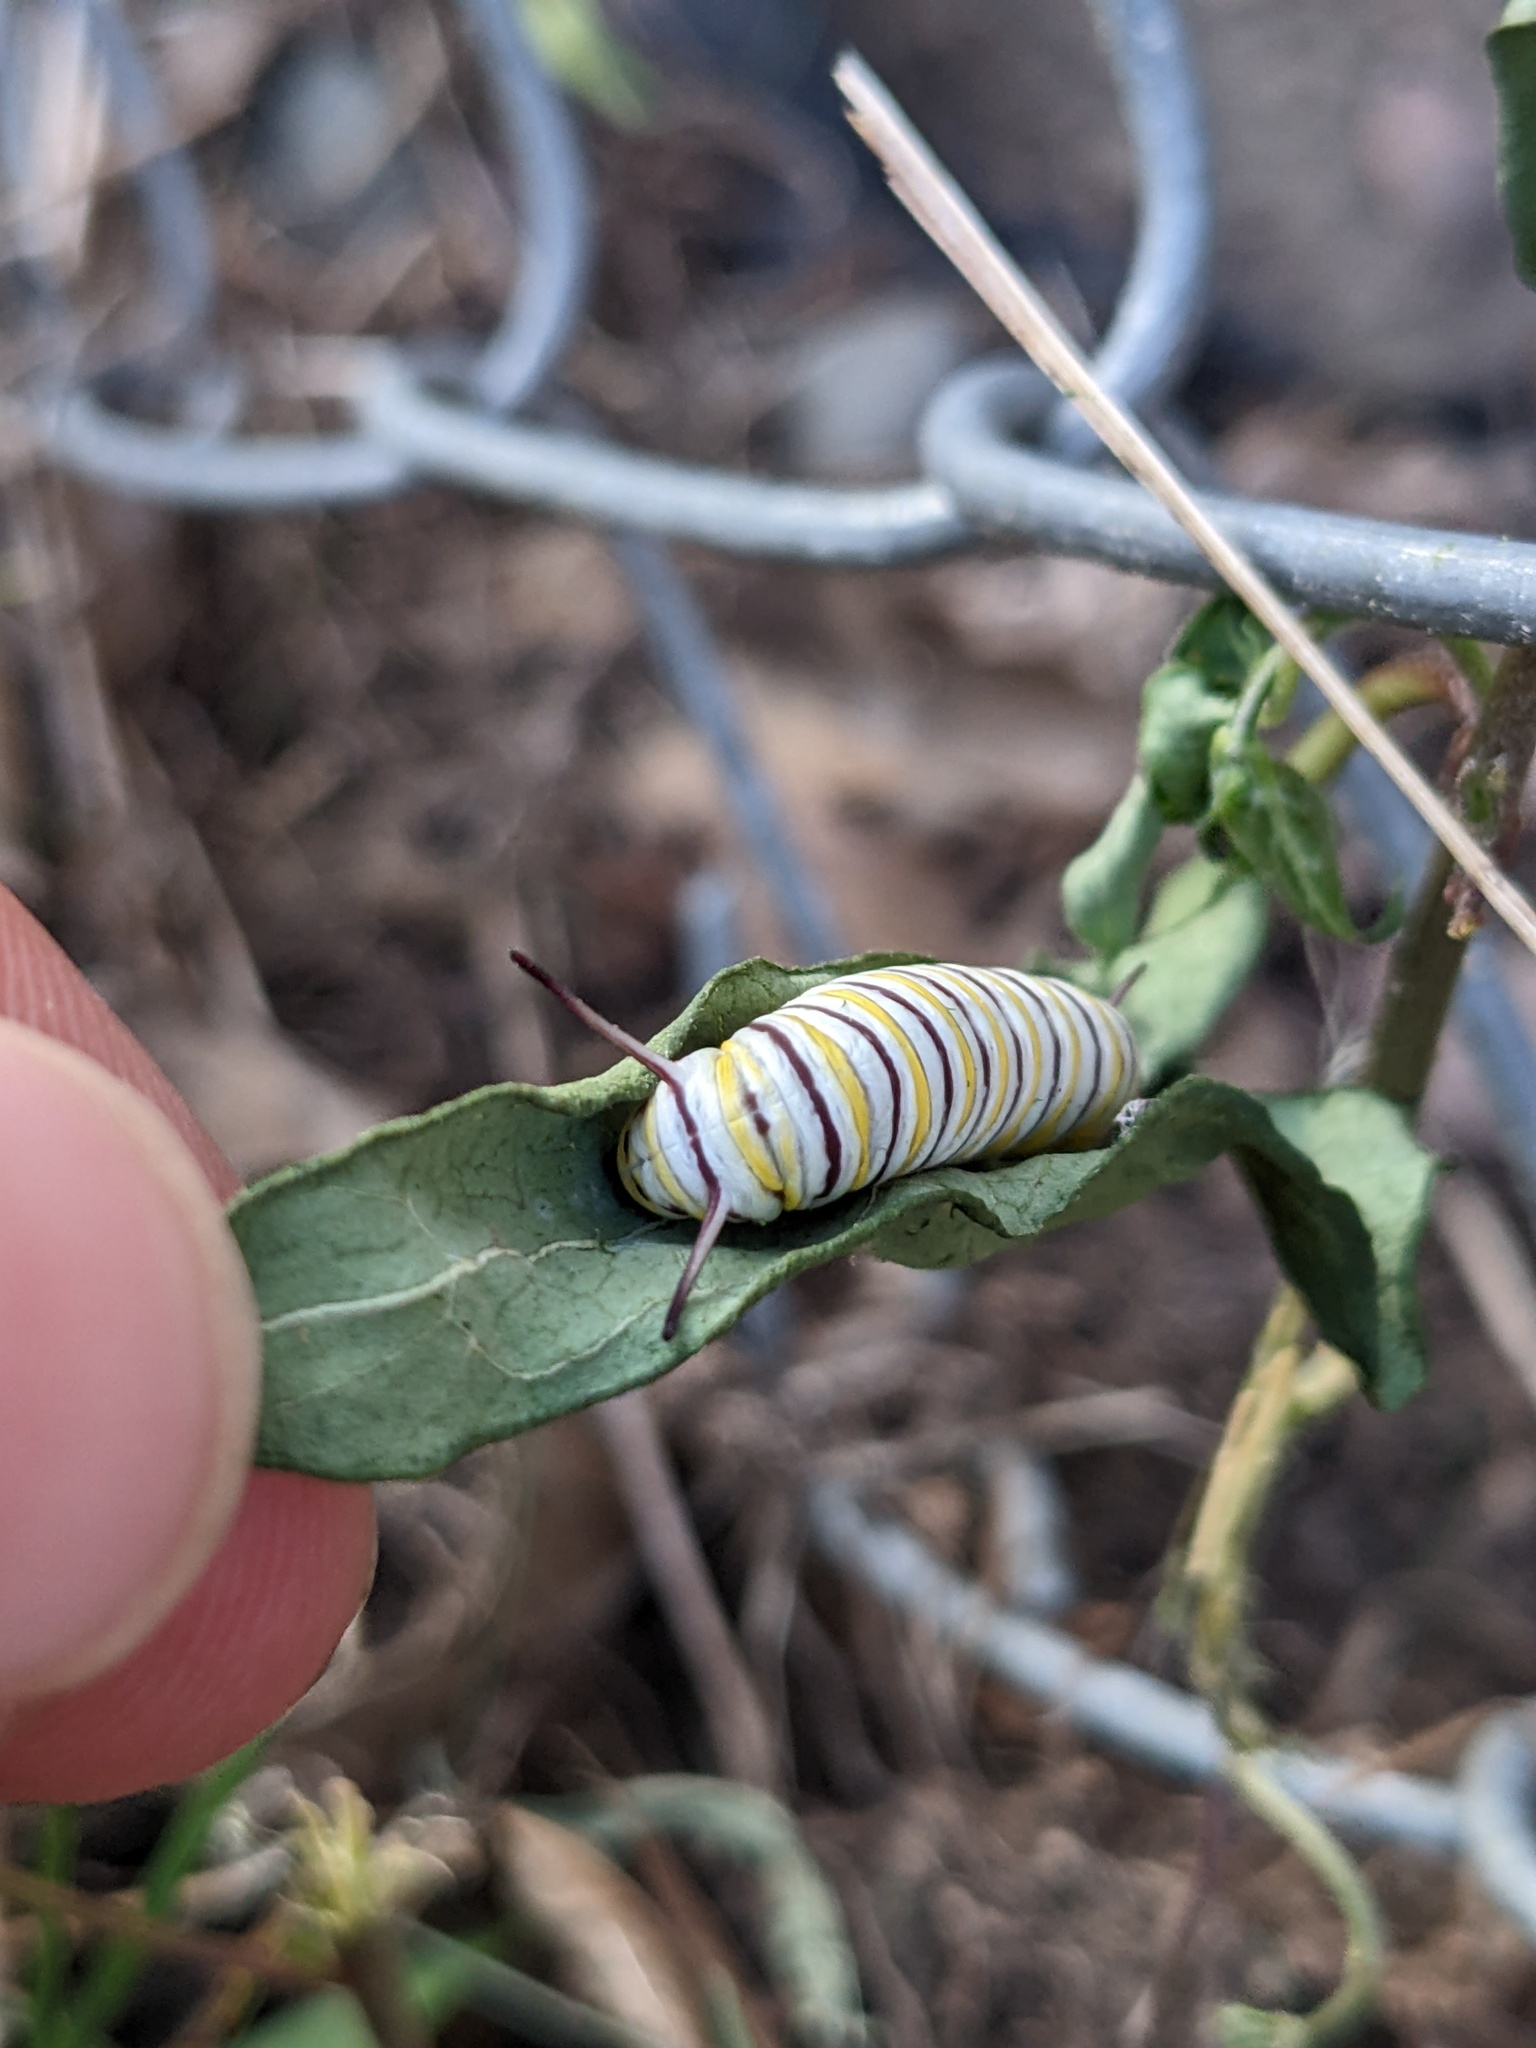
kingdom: Animalia
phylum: Arthropoda
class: Insecta
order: Lepidoptera
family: Nymphalidae
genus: Danaus
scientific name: Danaus plexippus
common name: Monarch
